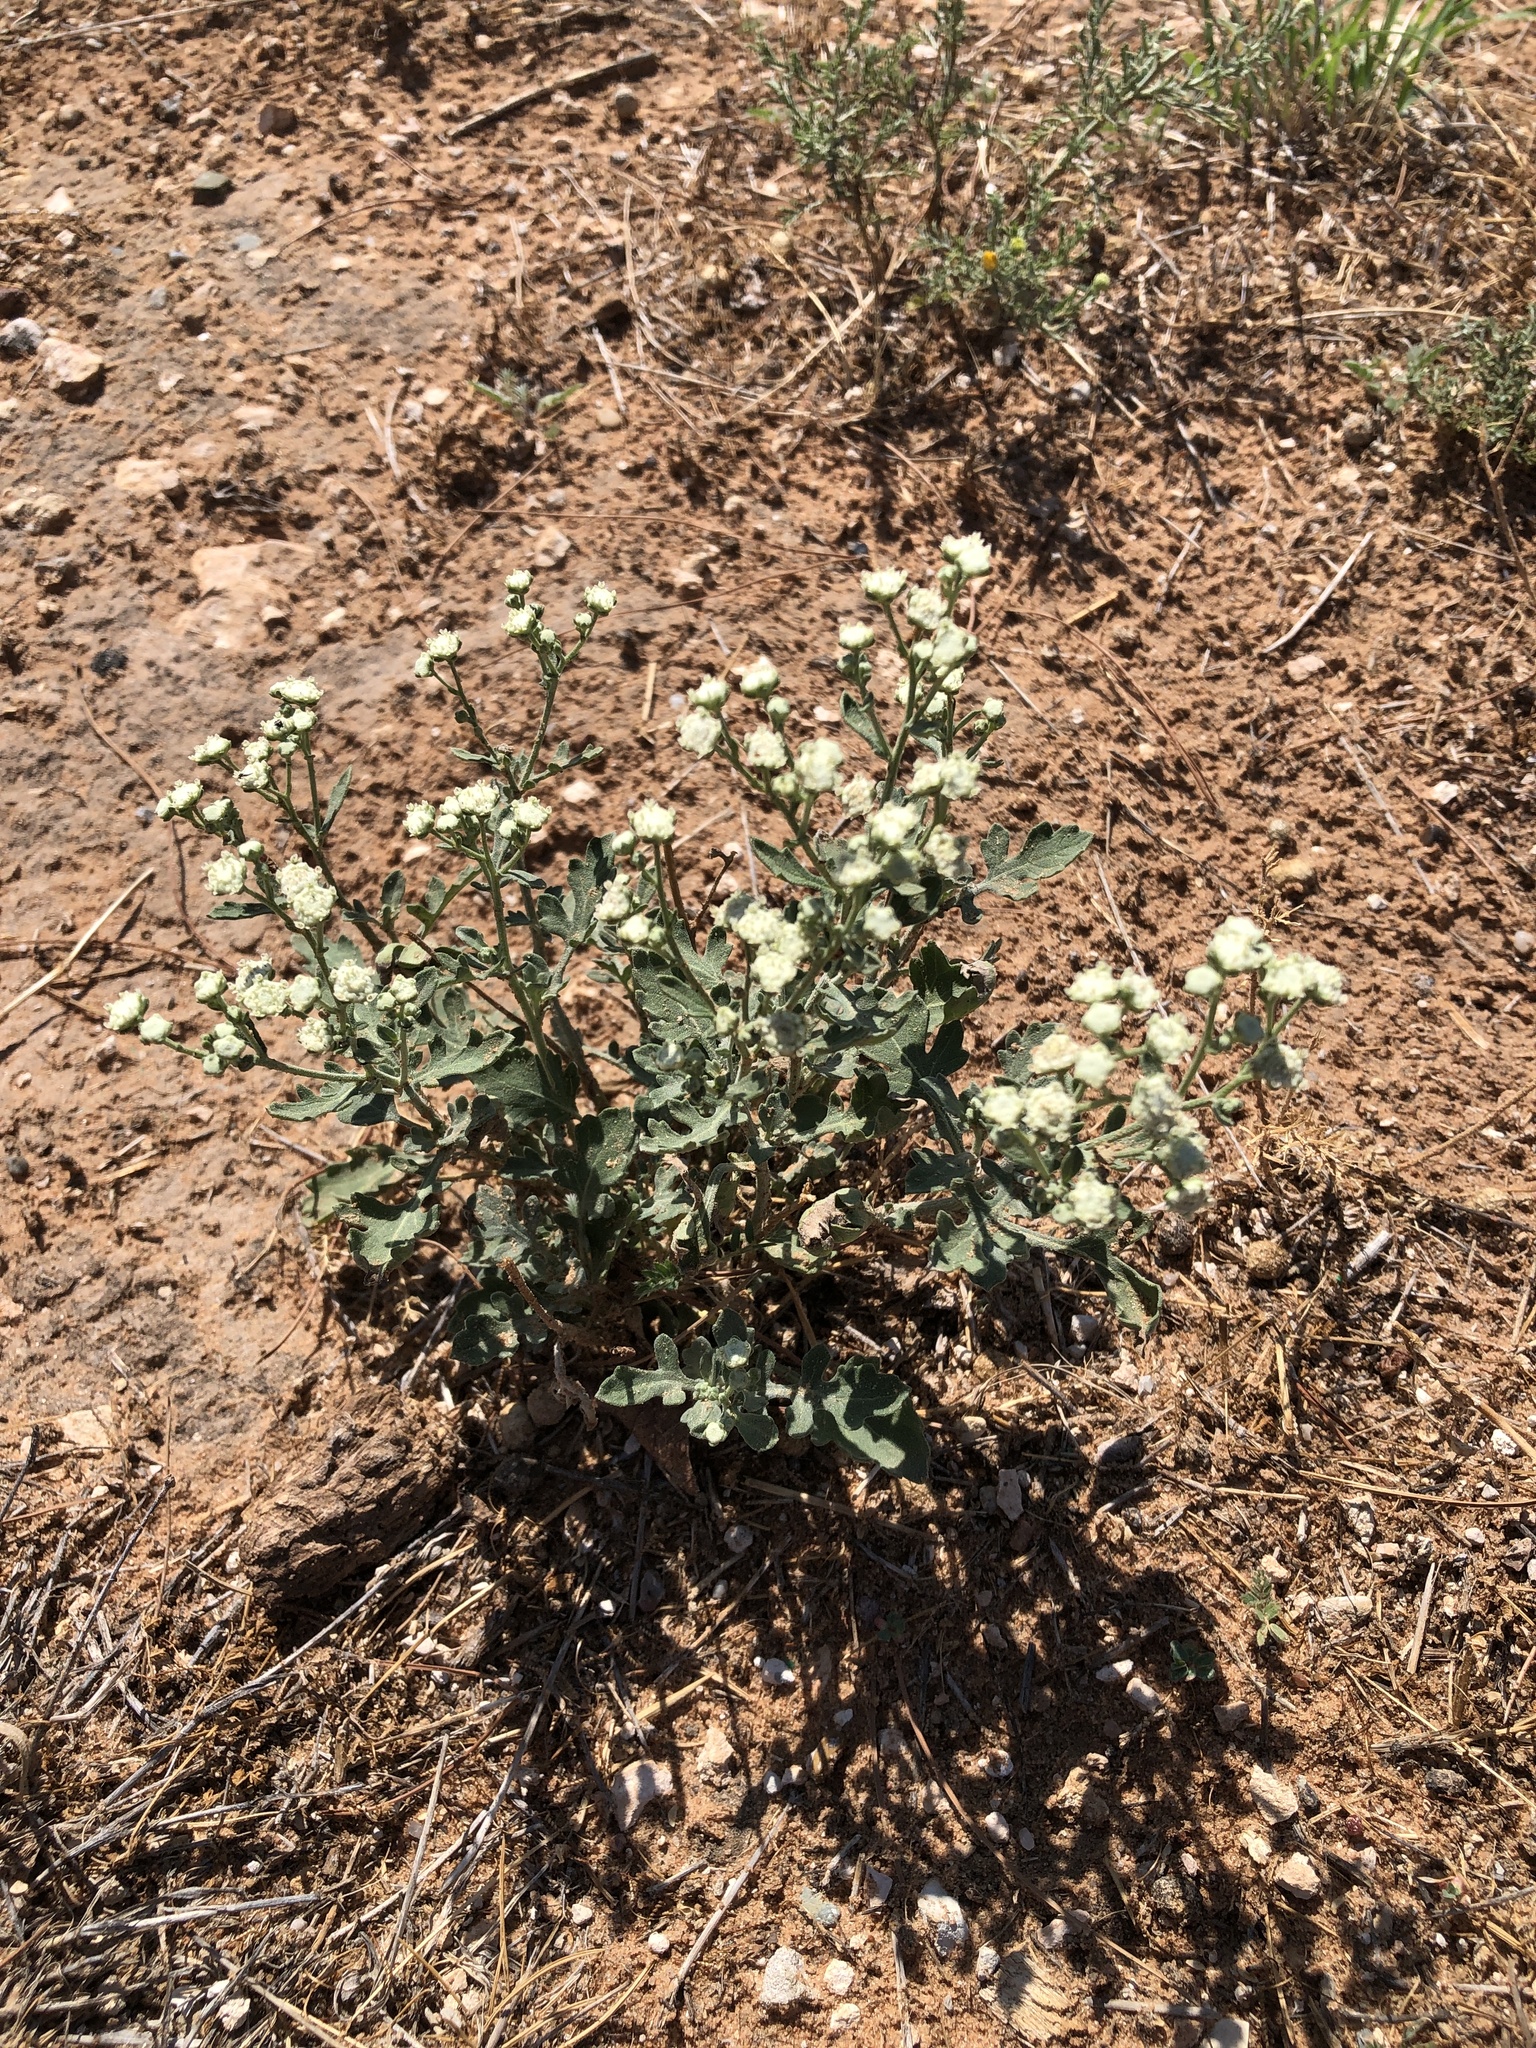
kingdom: Plantae
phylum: Tracheophyta
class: Magnoliopsida
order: Asterales
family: Asteraceae
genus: Parthenium
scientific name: Parthenium confertum
